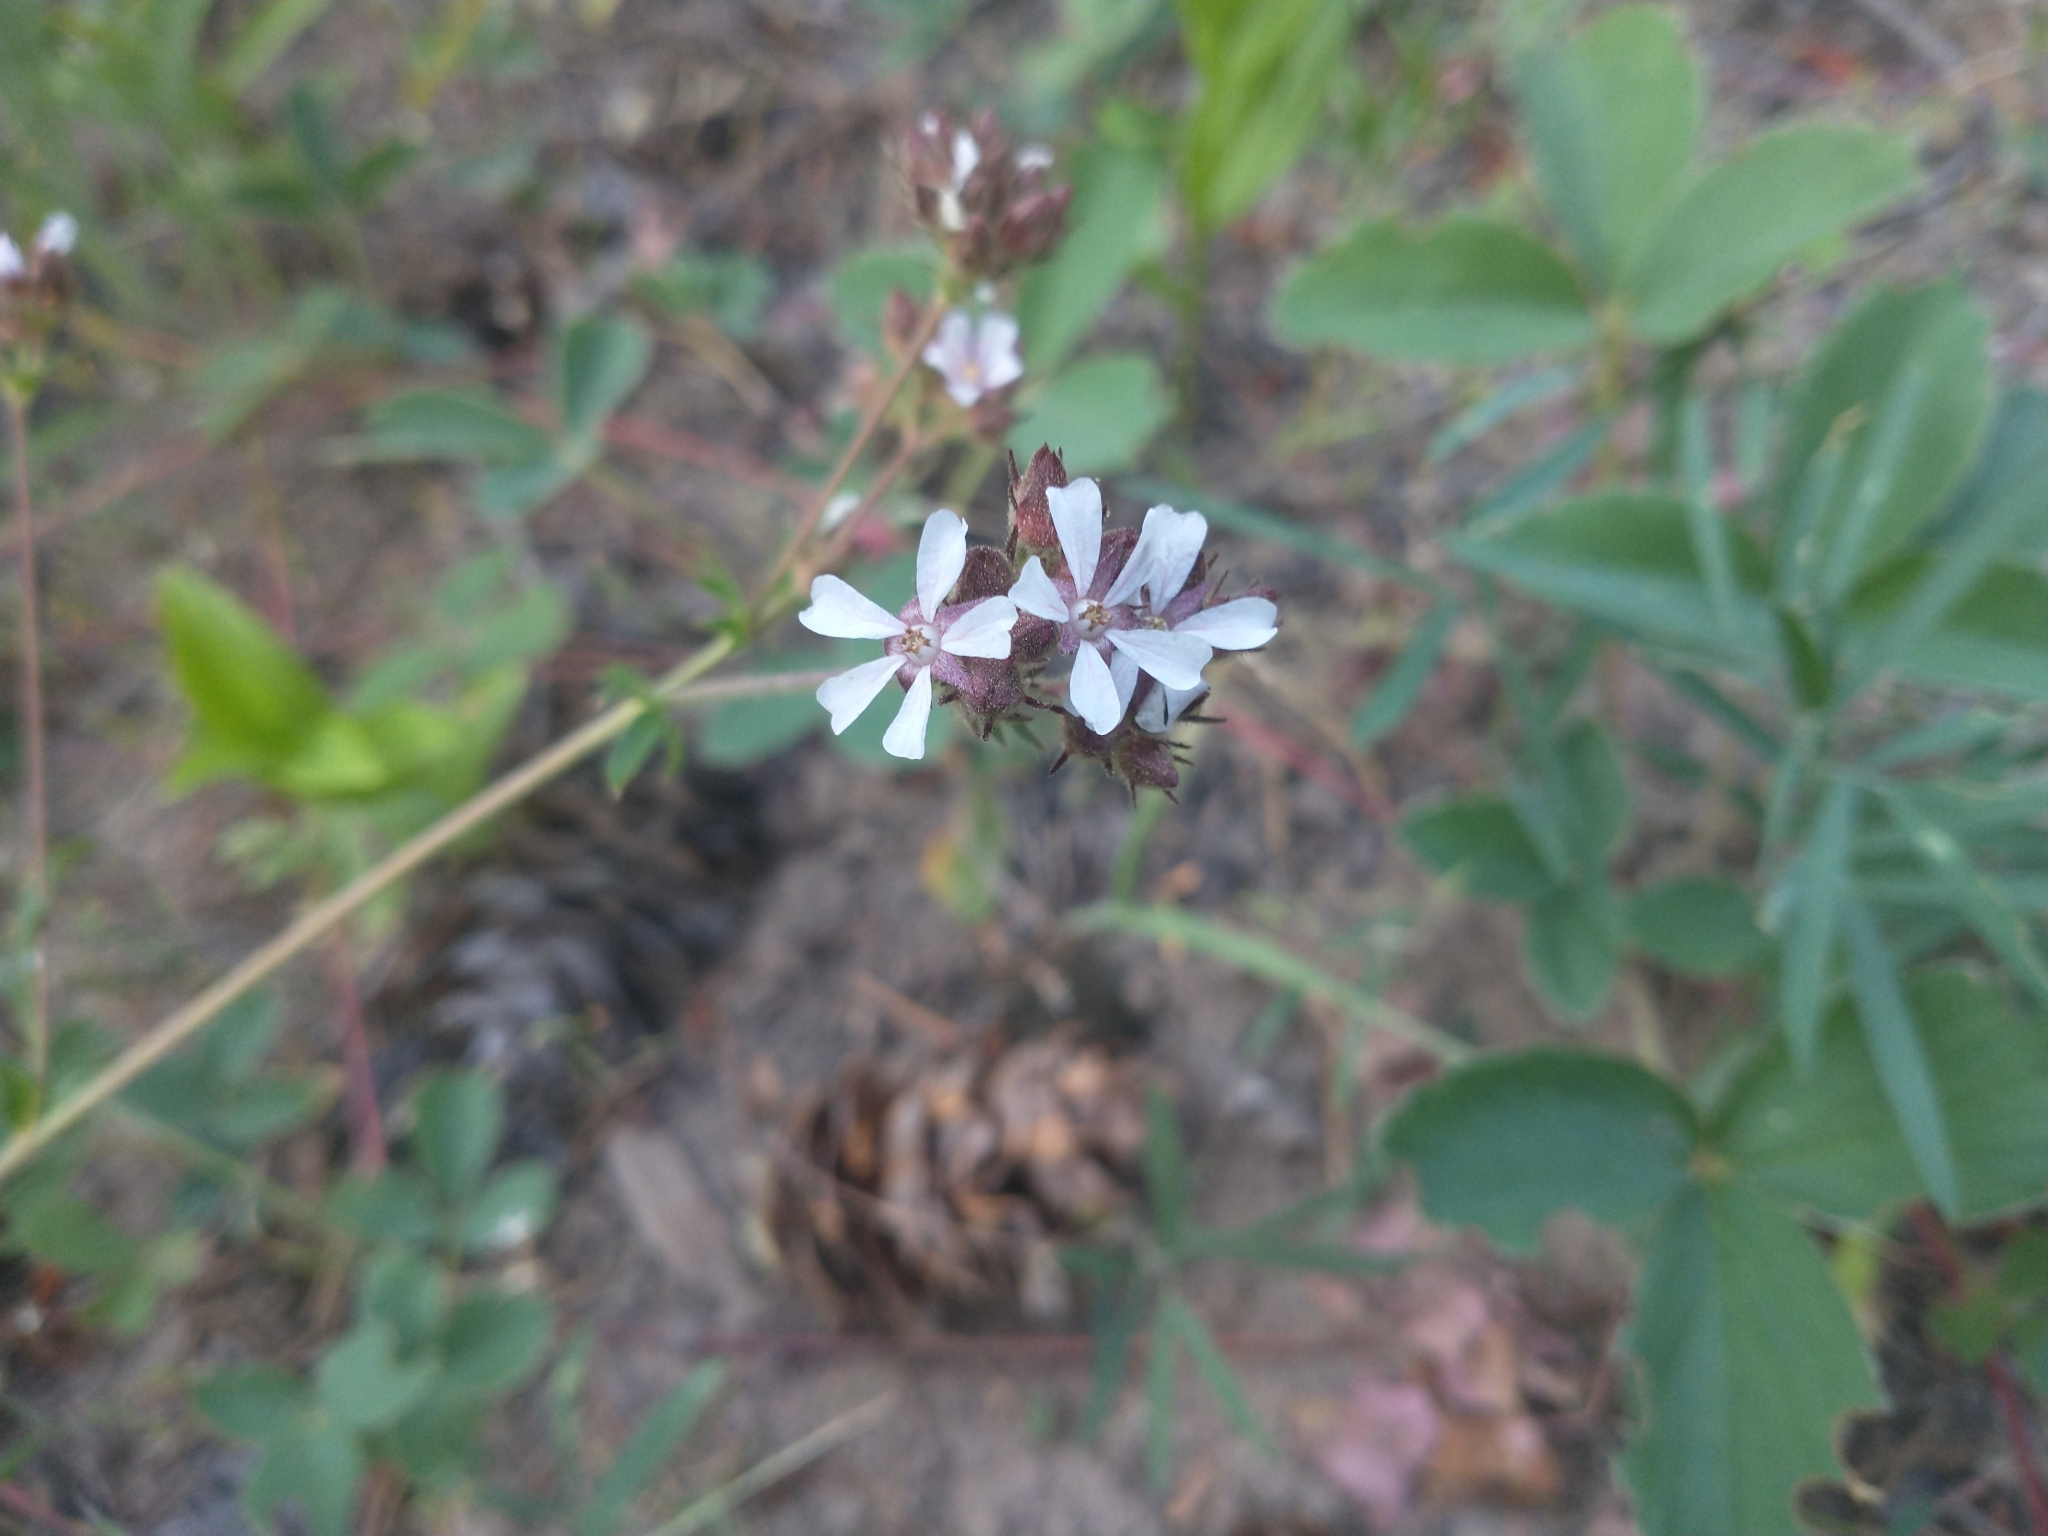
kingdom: Plantae
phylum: Tracheophyta
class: Magnoliopsida
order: Rosales
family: Rosaceae
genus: Potentilla
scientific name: Potentilla douglasii
